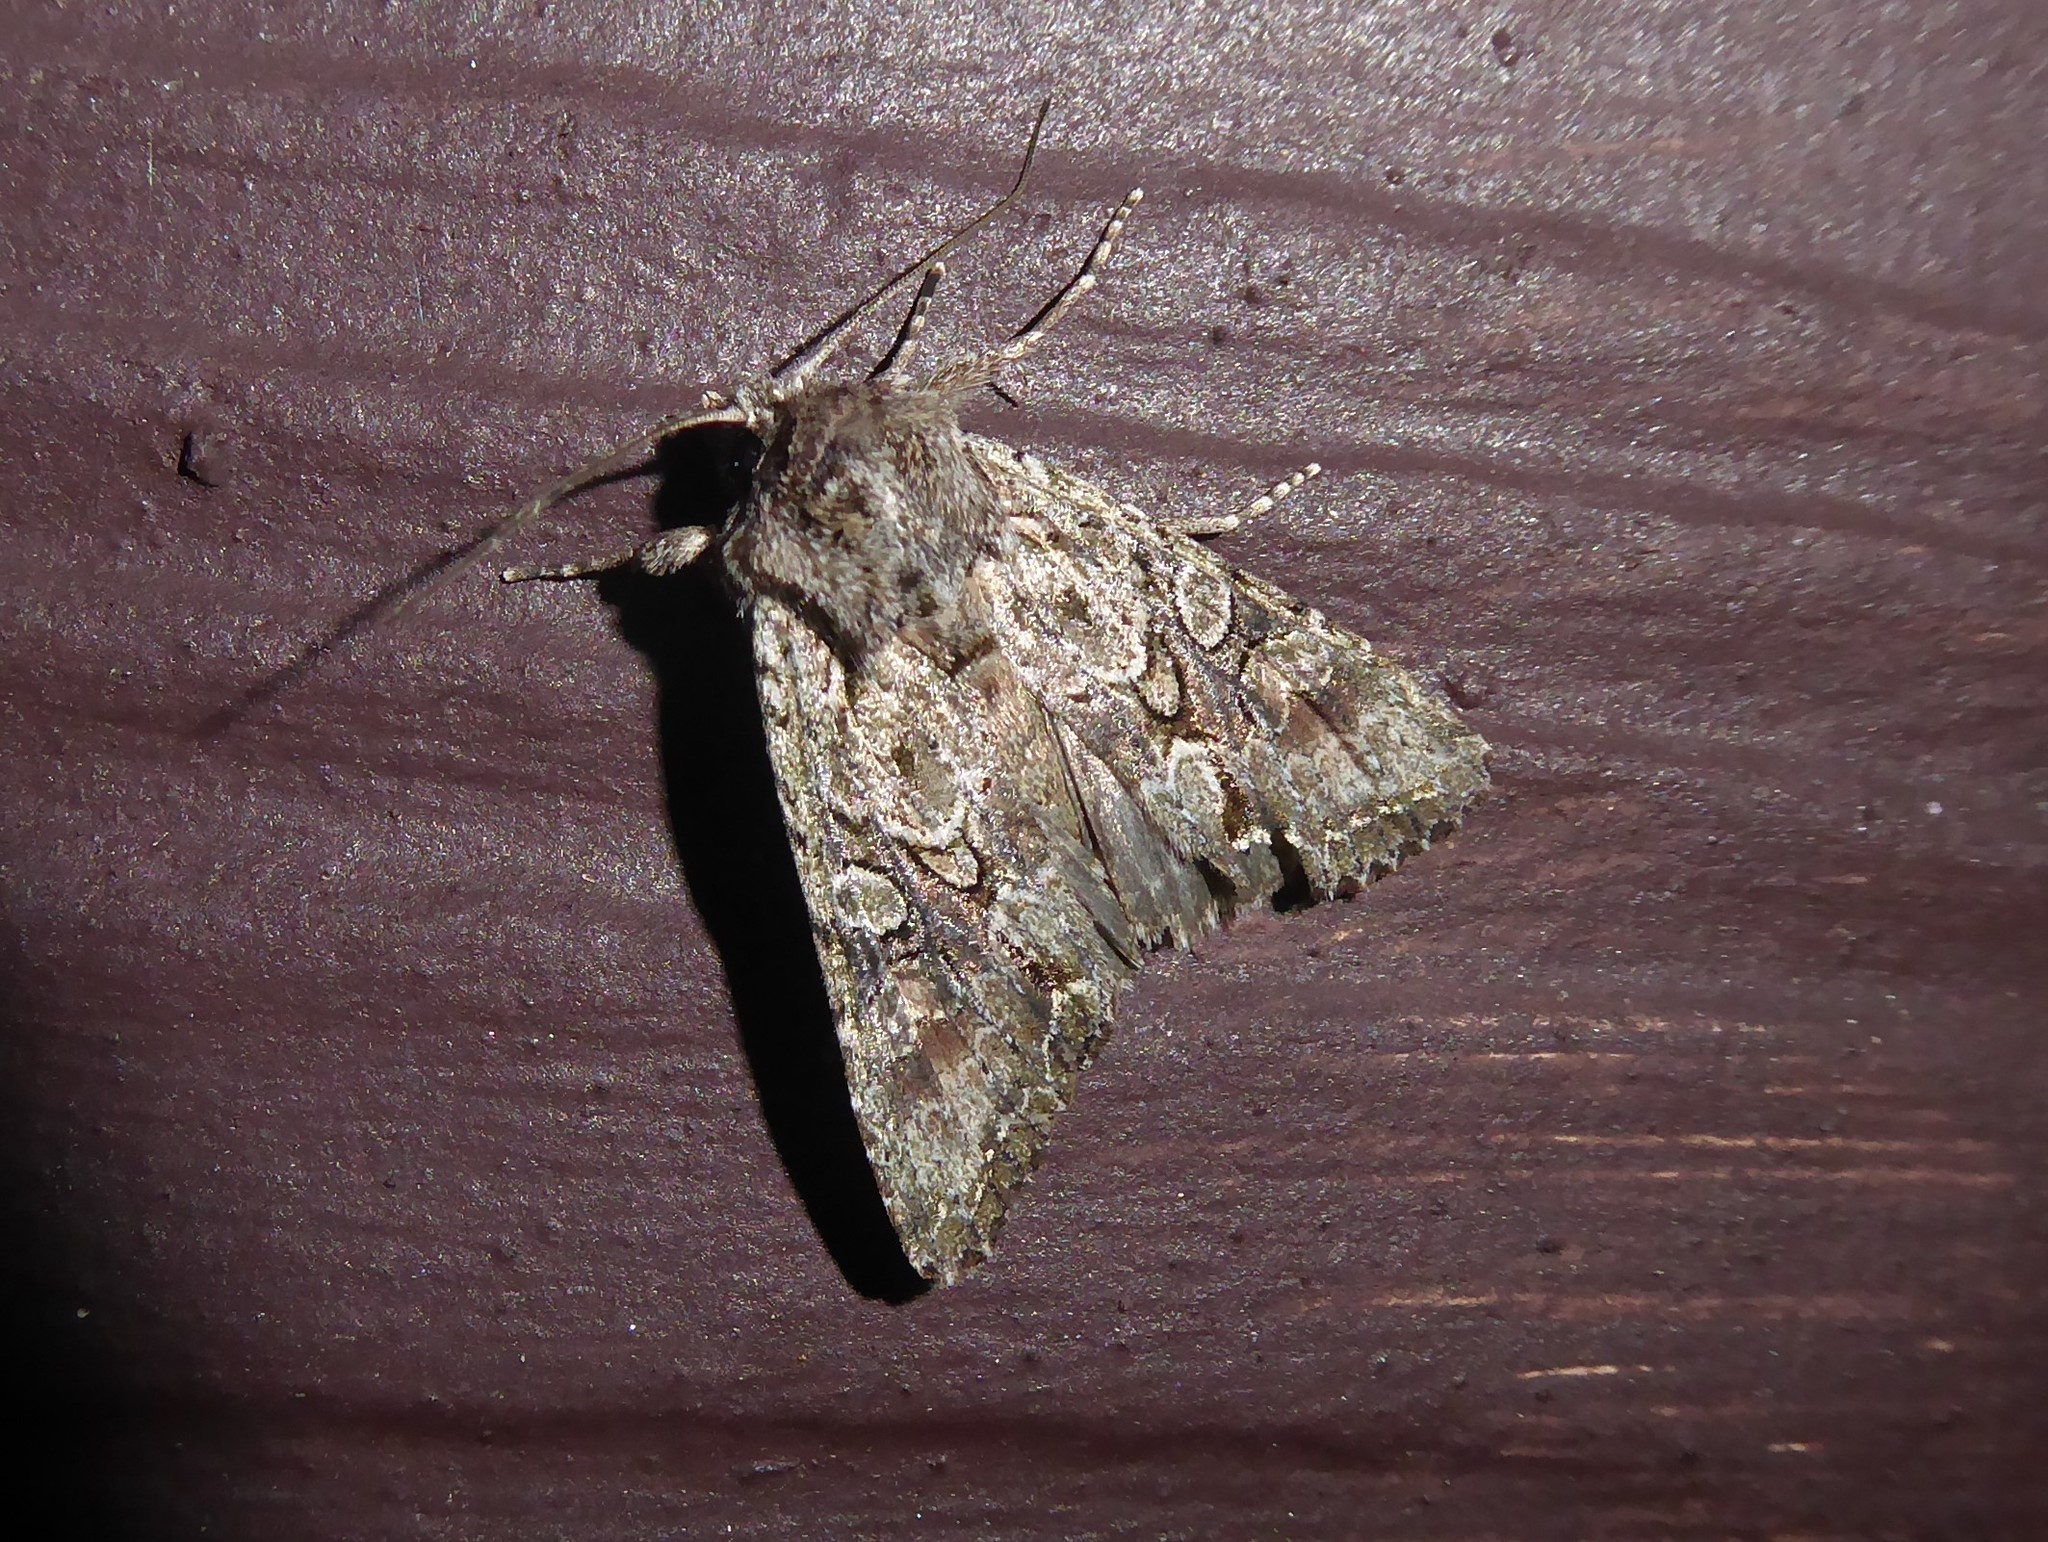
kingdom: Animalia
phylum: Arthropoda
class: Insecta
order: Lepidoptera
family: Noctuidae
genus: Ichneutica
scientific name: Ichneutica mutans
